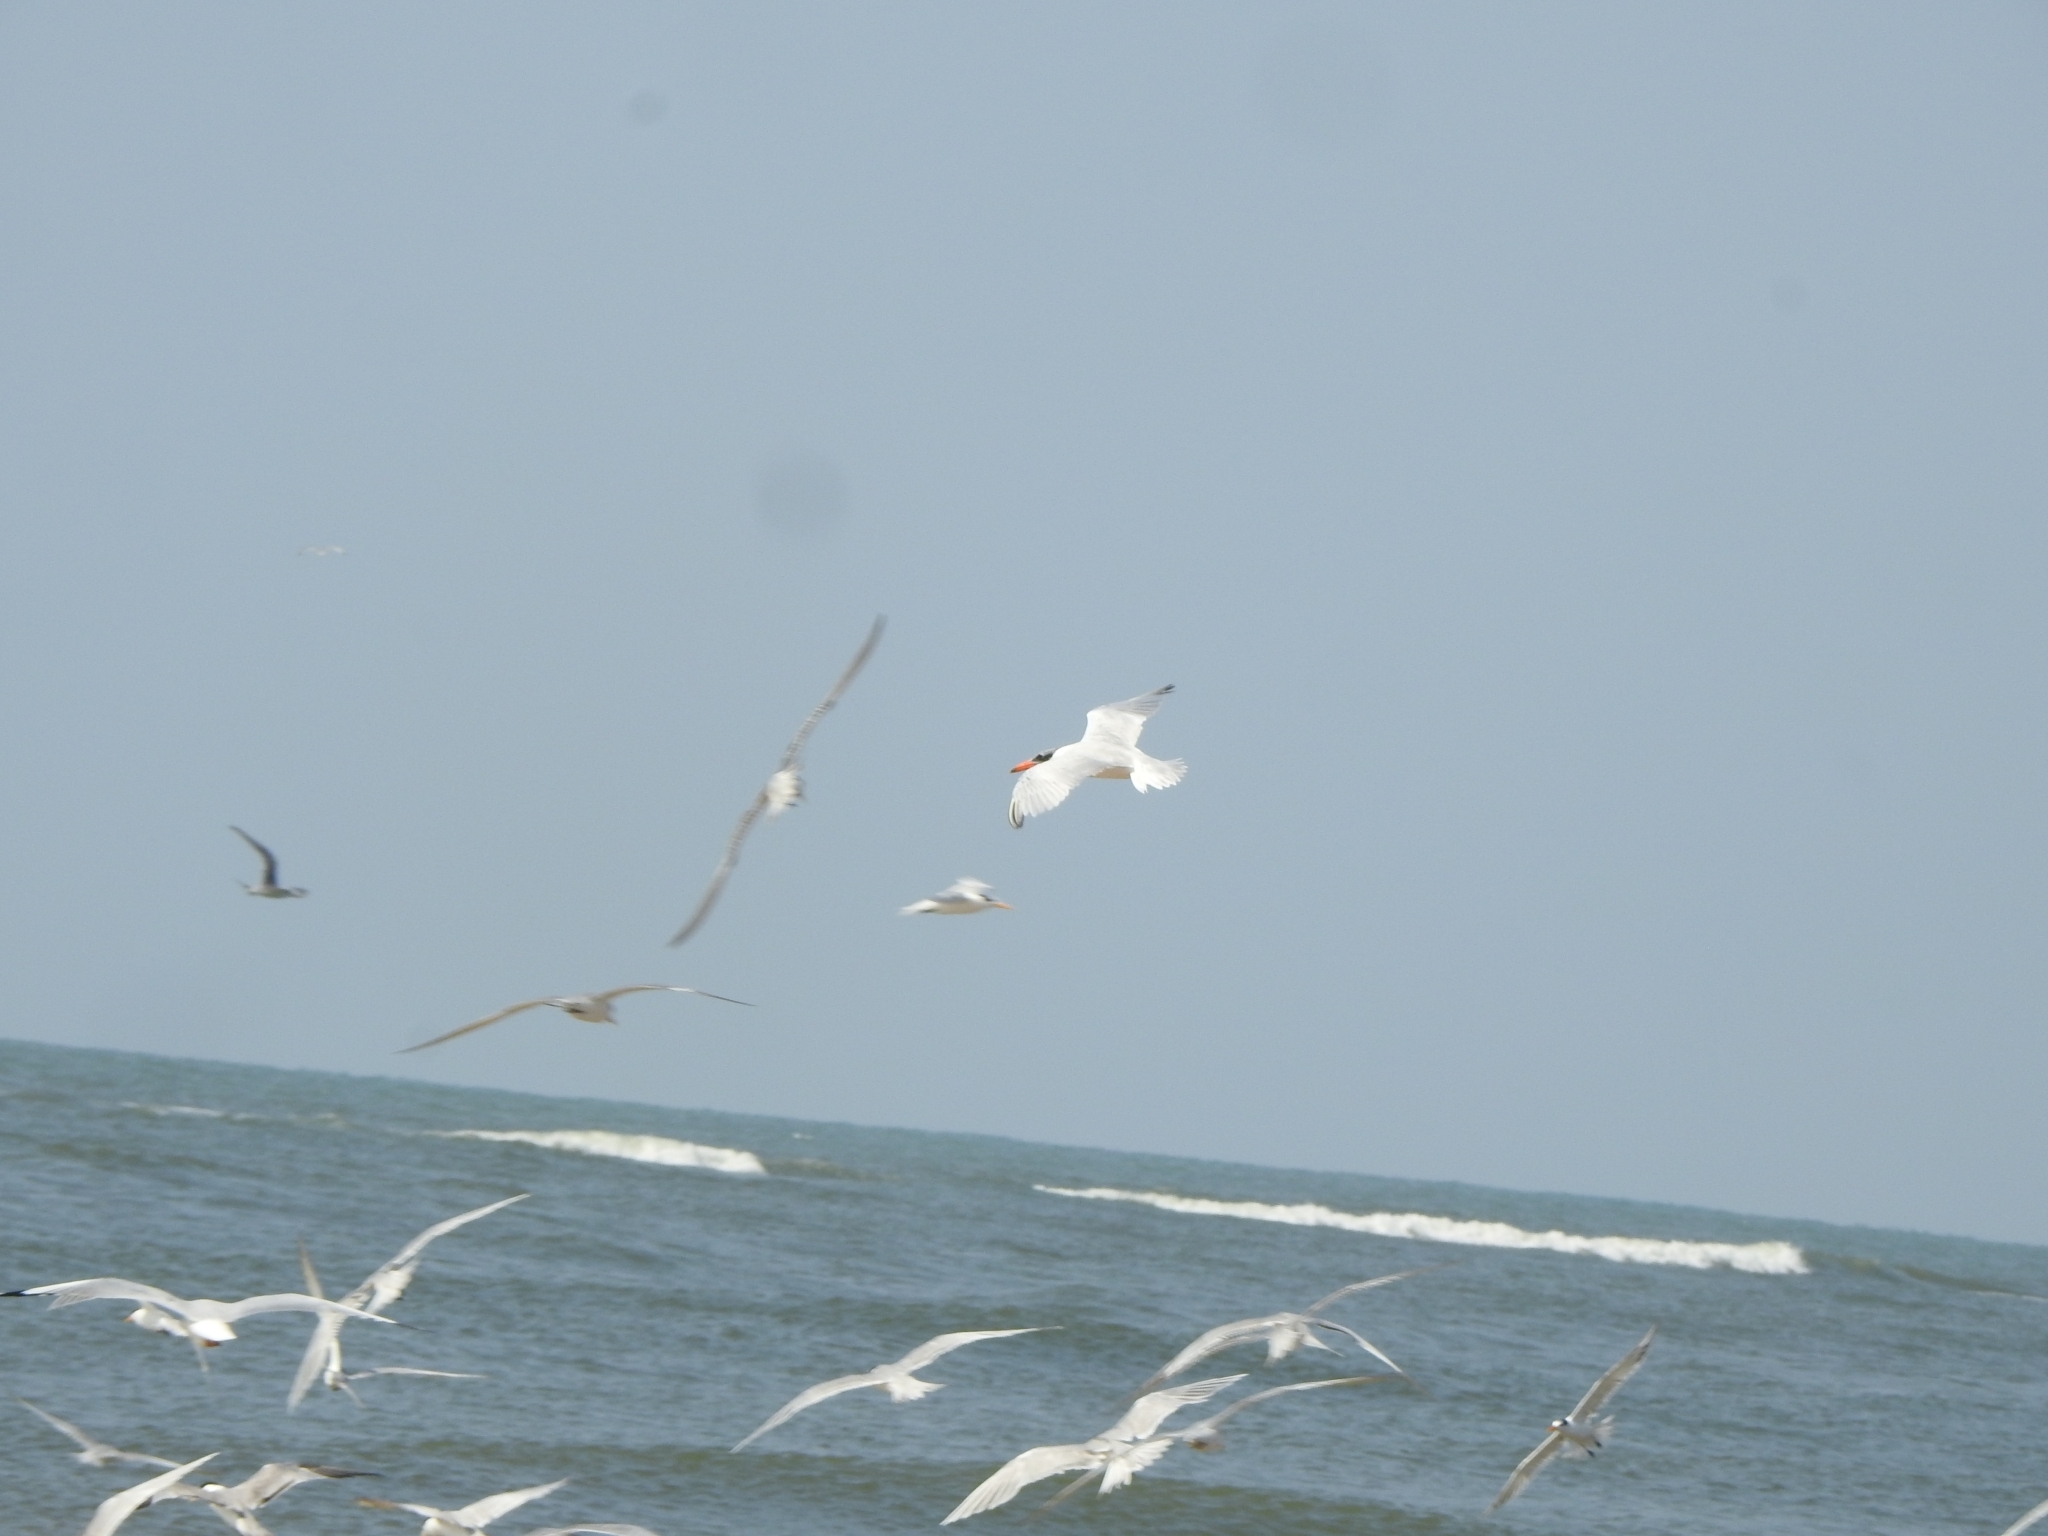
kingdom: Animalia
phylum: Chordata
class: Aves
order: Charadriiformes
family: Laridae
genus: Hydroprogne
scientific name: Hydroprogne caspia
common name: Caspian tern
